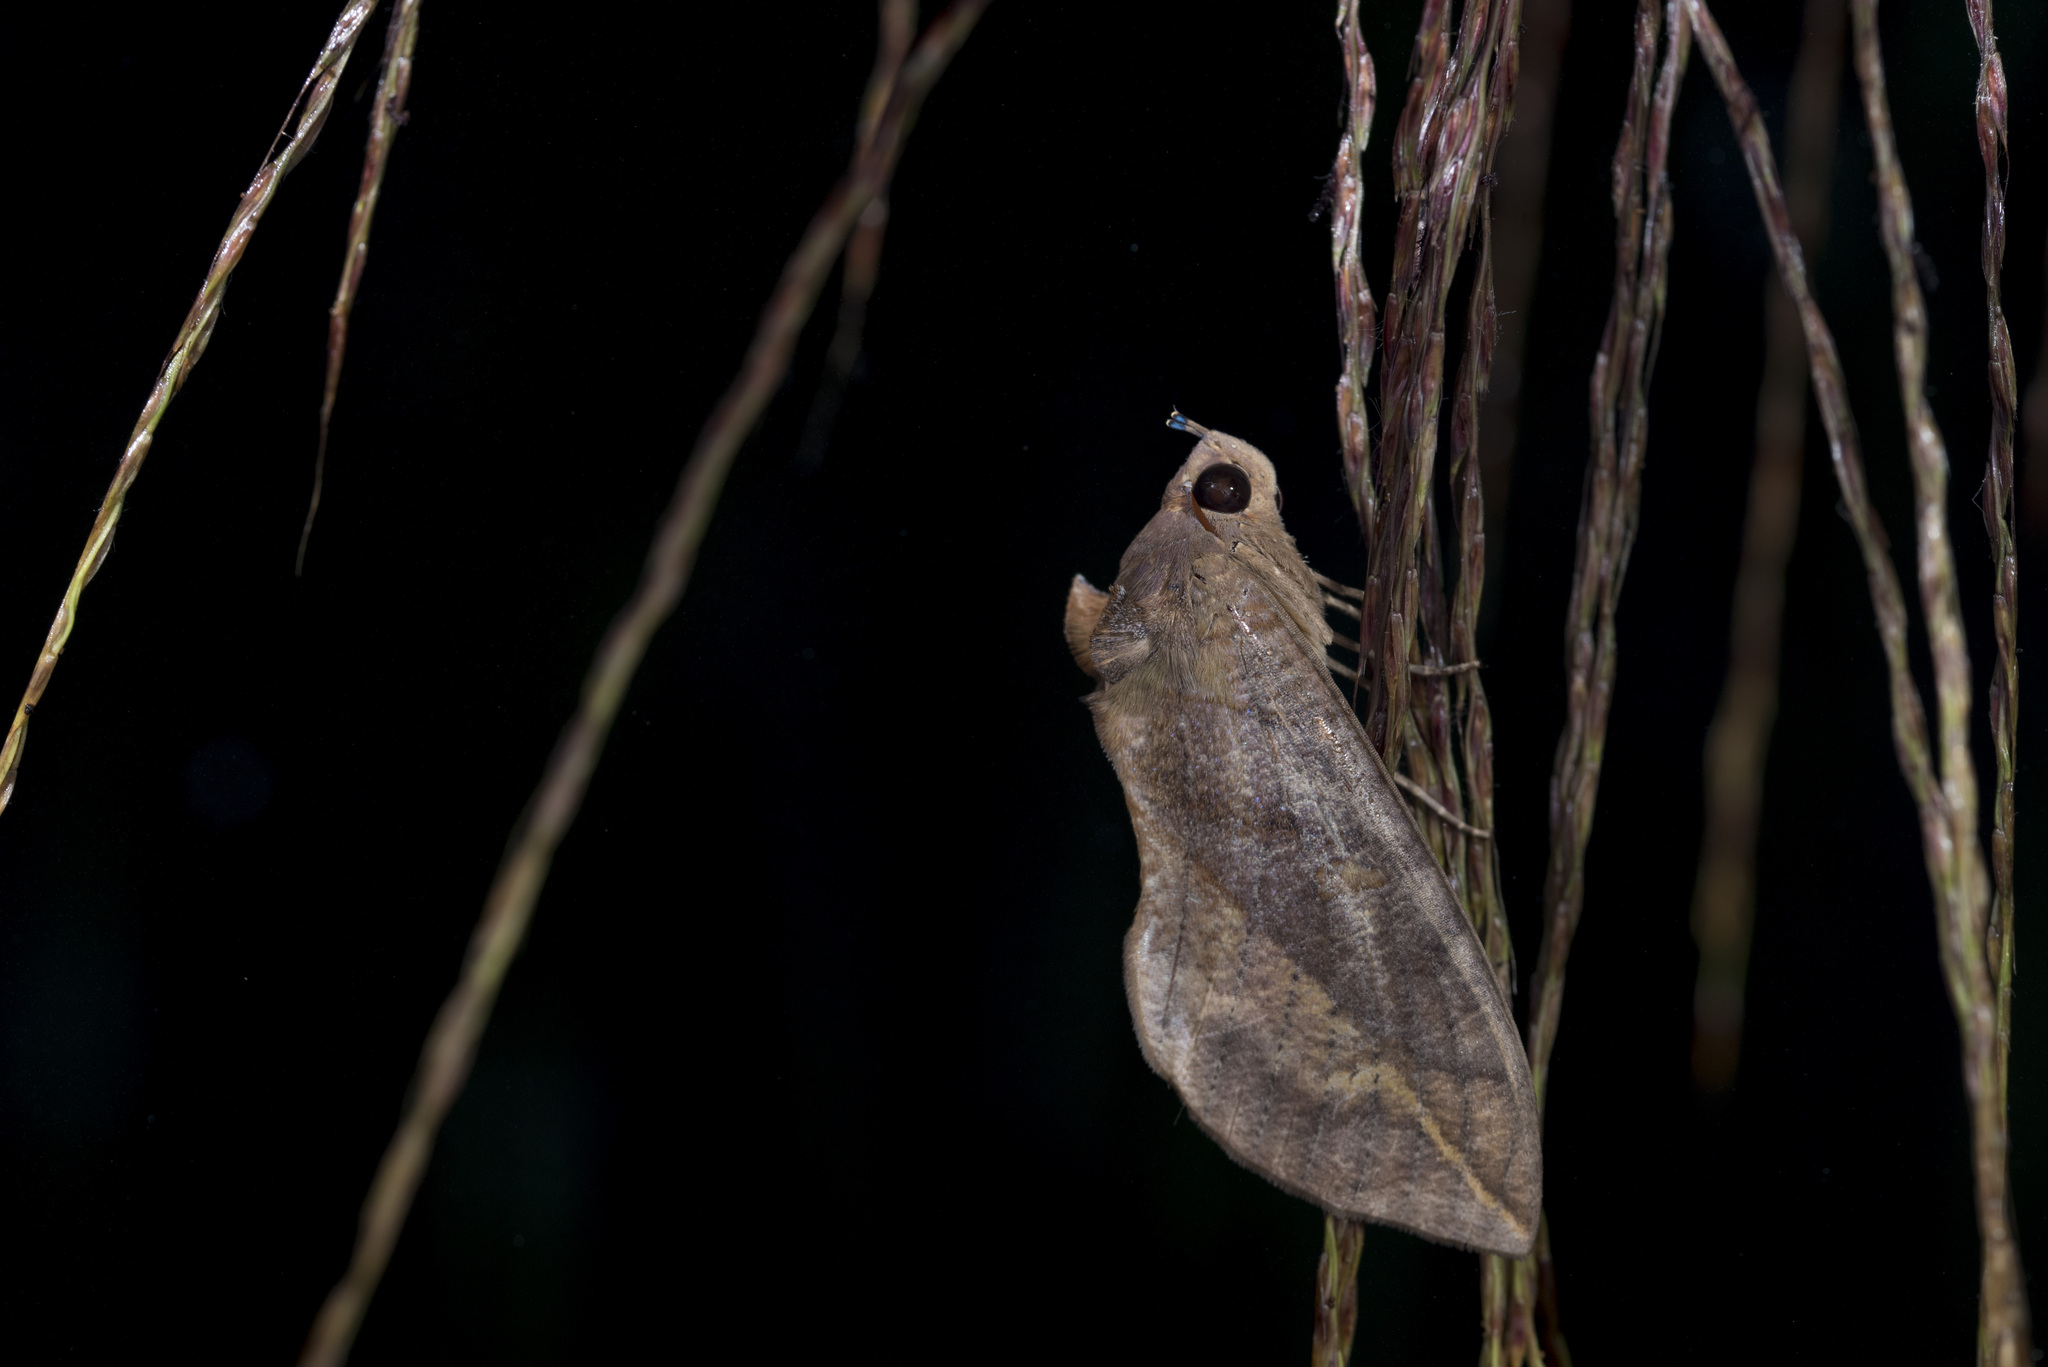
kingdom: Animalia
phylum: Arthropoda
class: Insecta
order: Lepidoptera
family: Erebidae
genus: Eudocima
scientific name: Eudocima phalonia
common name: Wasp
